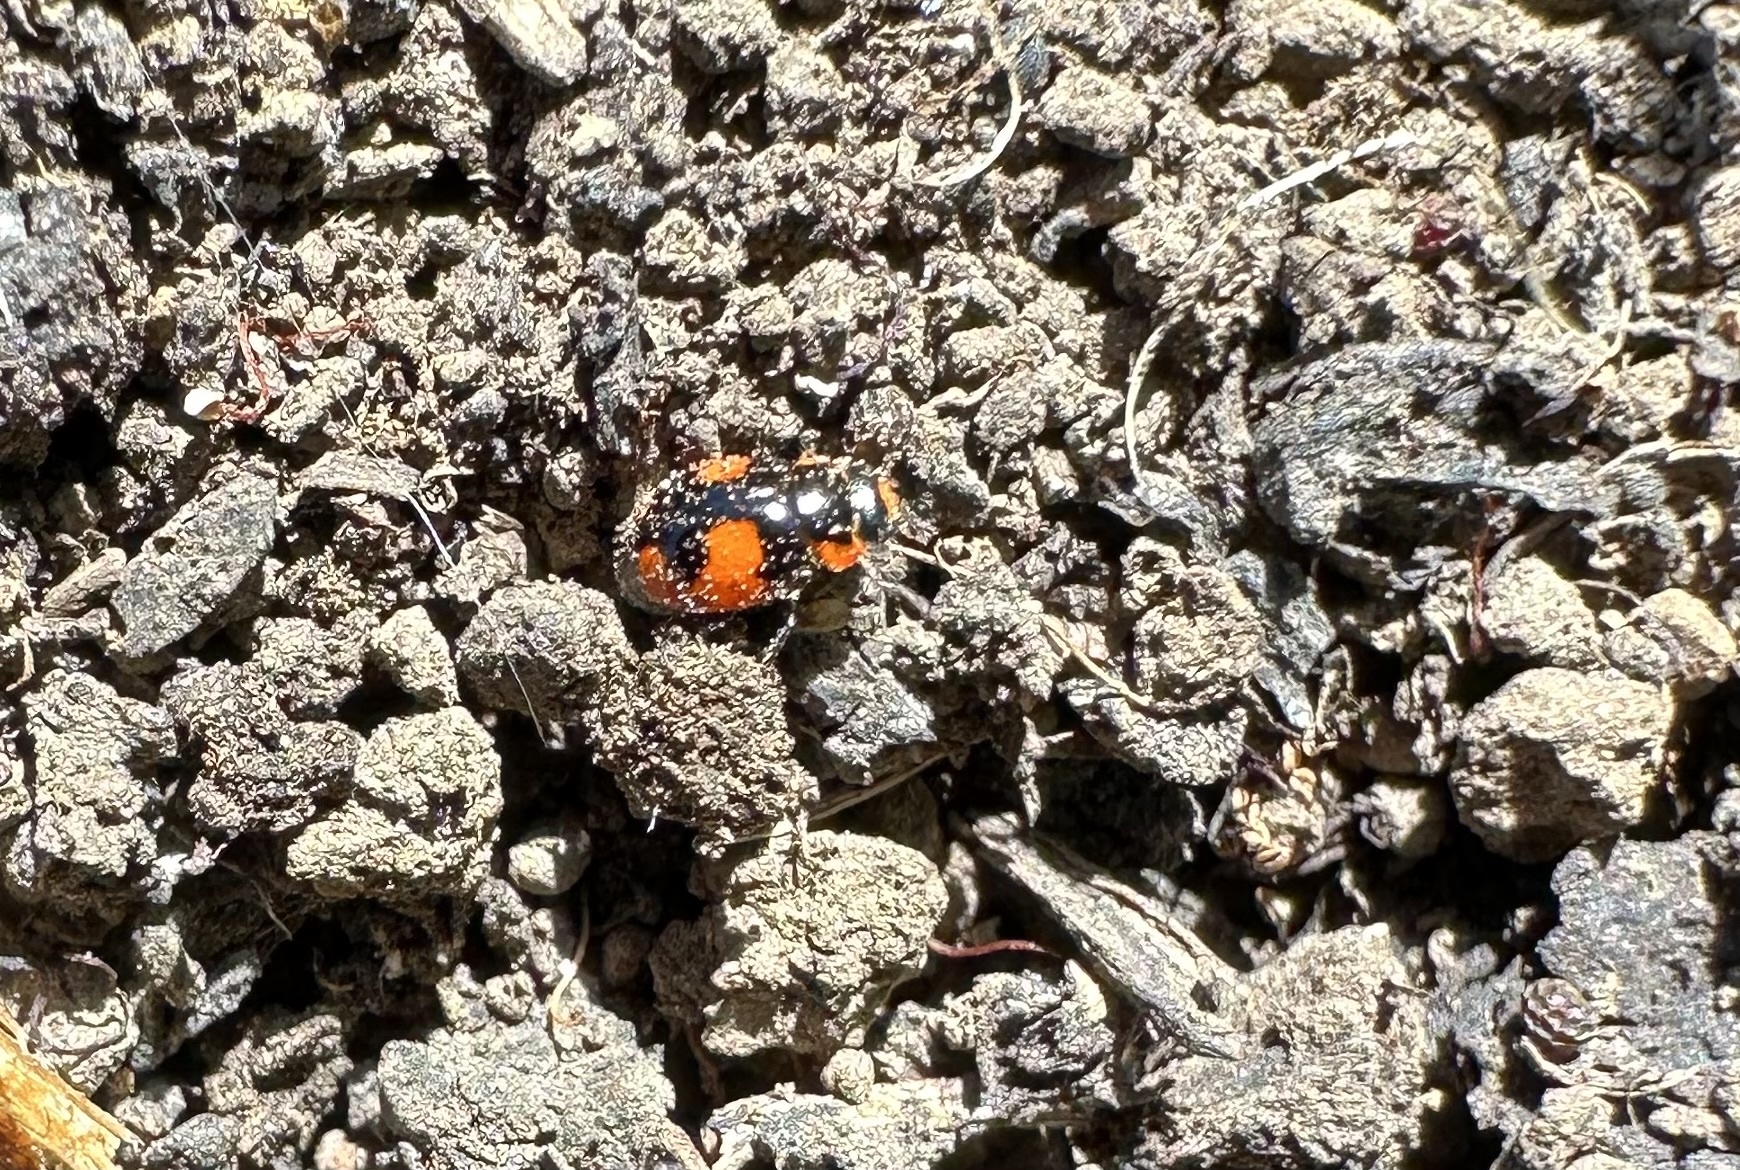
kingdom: Animalia
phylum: Arthropoda
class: Insecta
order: Coleoptera
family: Coccinellidae
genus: Hyperaspis
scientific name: Hyperaspis
